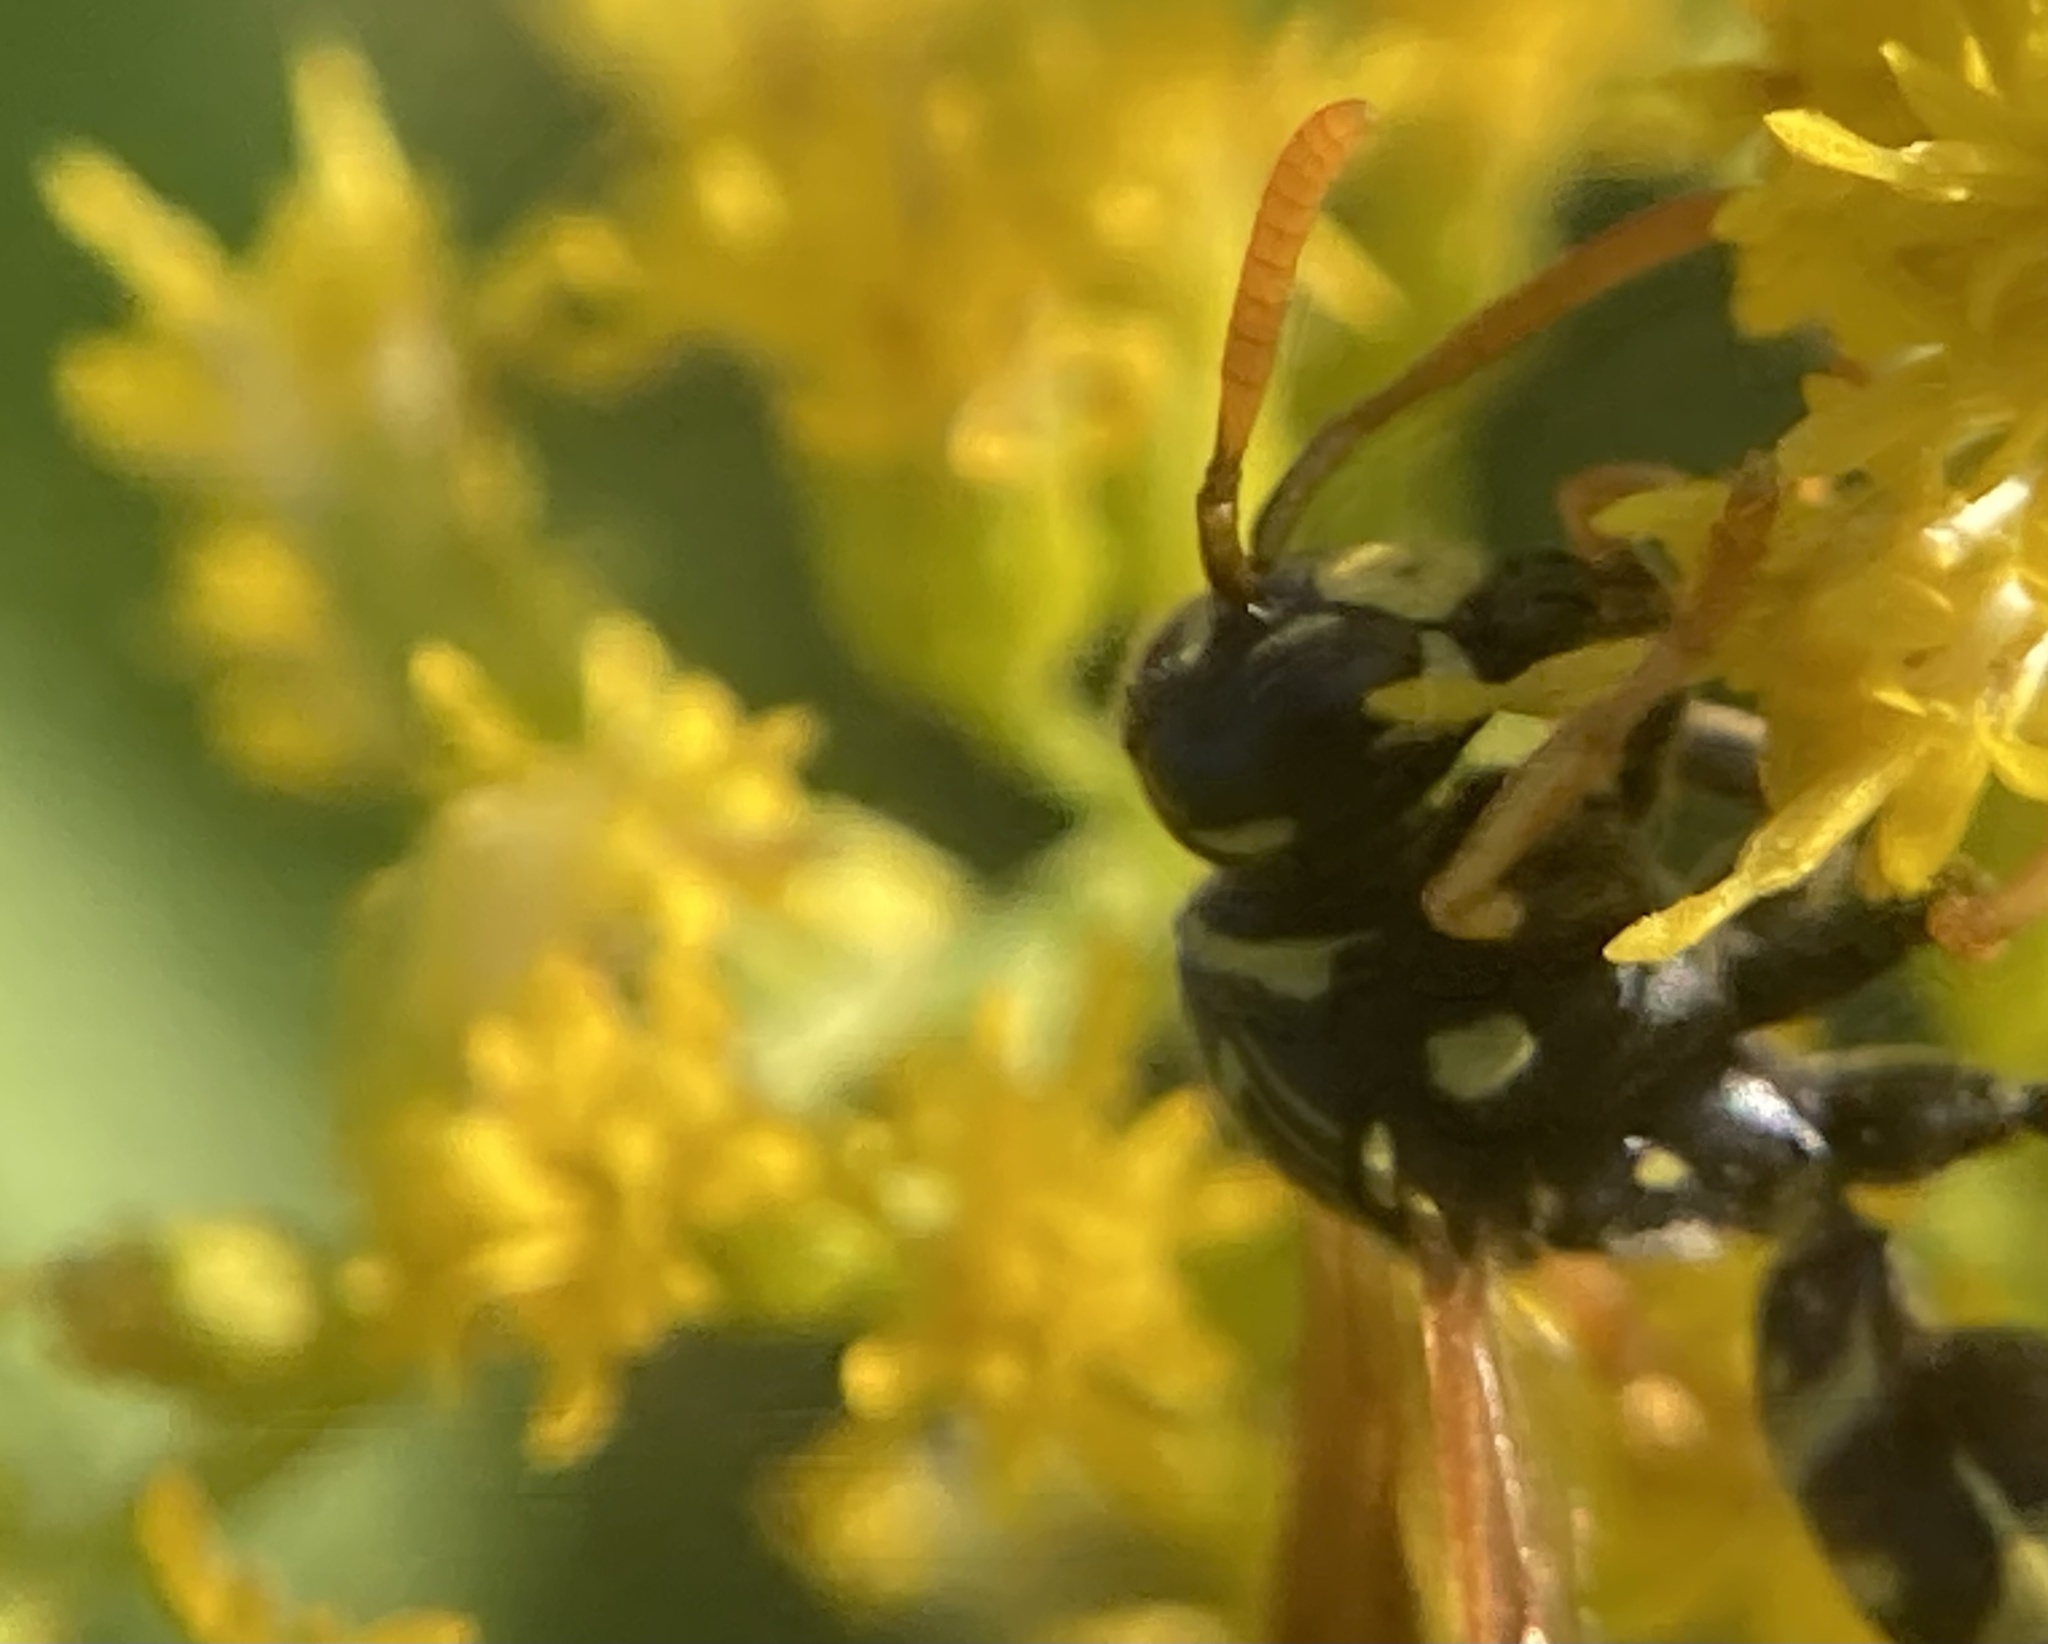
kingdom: Animalia
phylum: Arthropoda
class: Insecta
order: Hymenoptera
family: Eumenidae
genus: Polistes
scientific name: Polistes dominula
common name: Paper wasp
